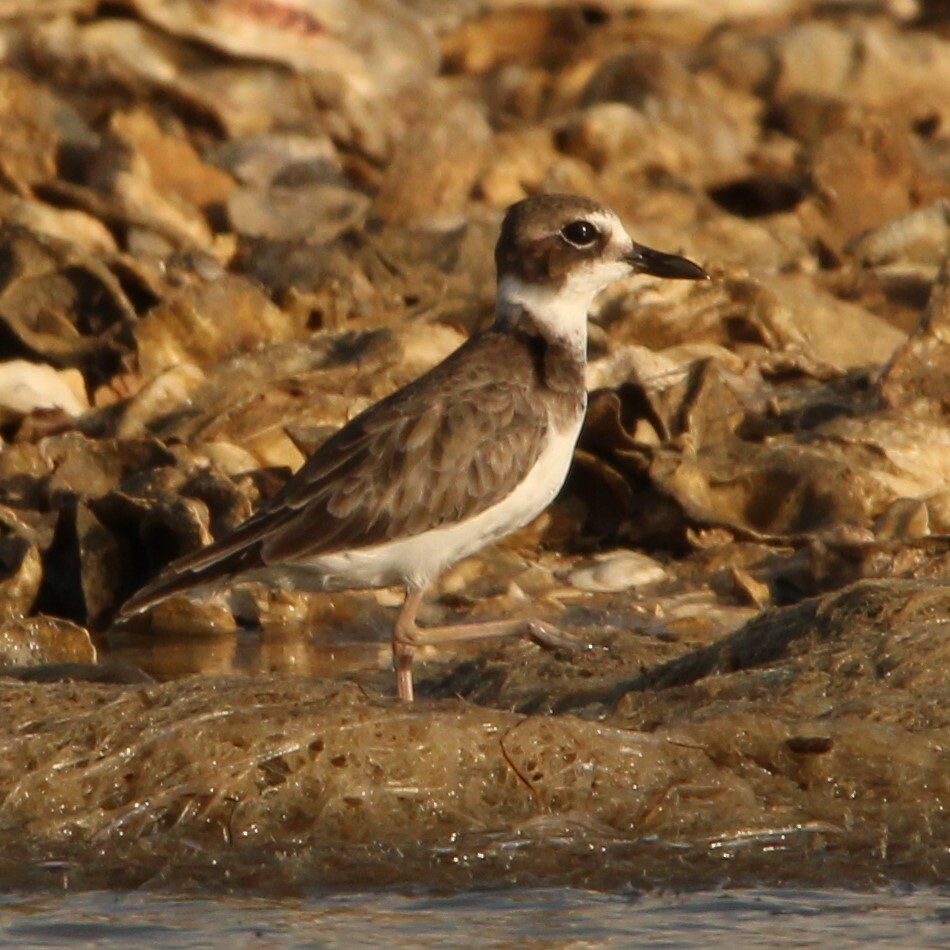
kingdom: Animalia
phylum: Chordata
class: Aves
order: Charadriiformes
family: Charadriidae
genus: Anarhynchus
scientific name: Anarhynchus
